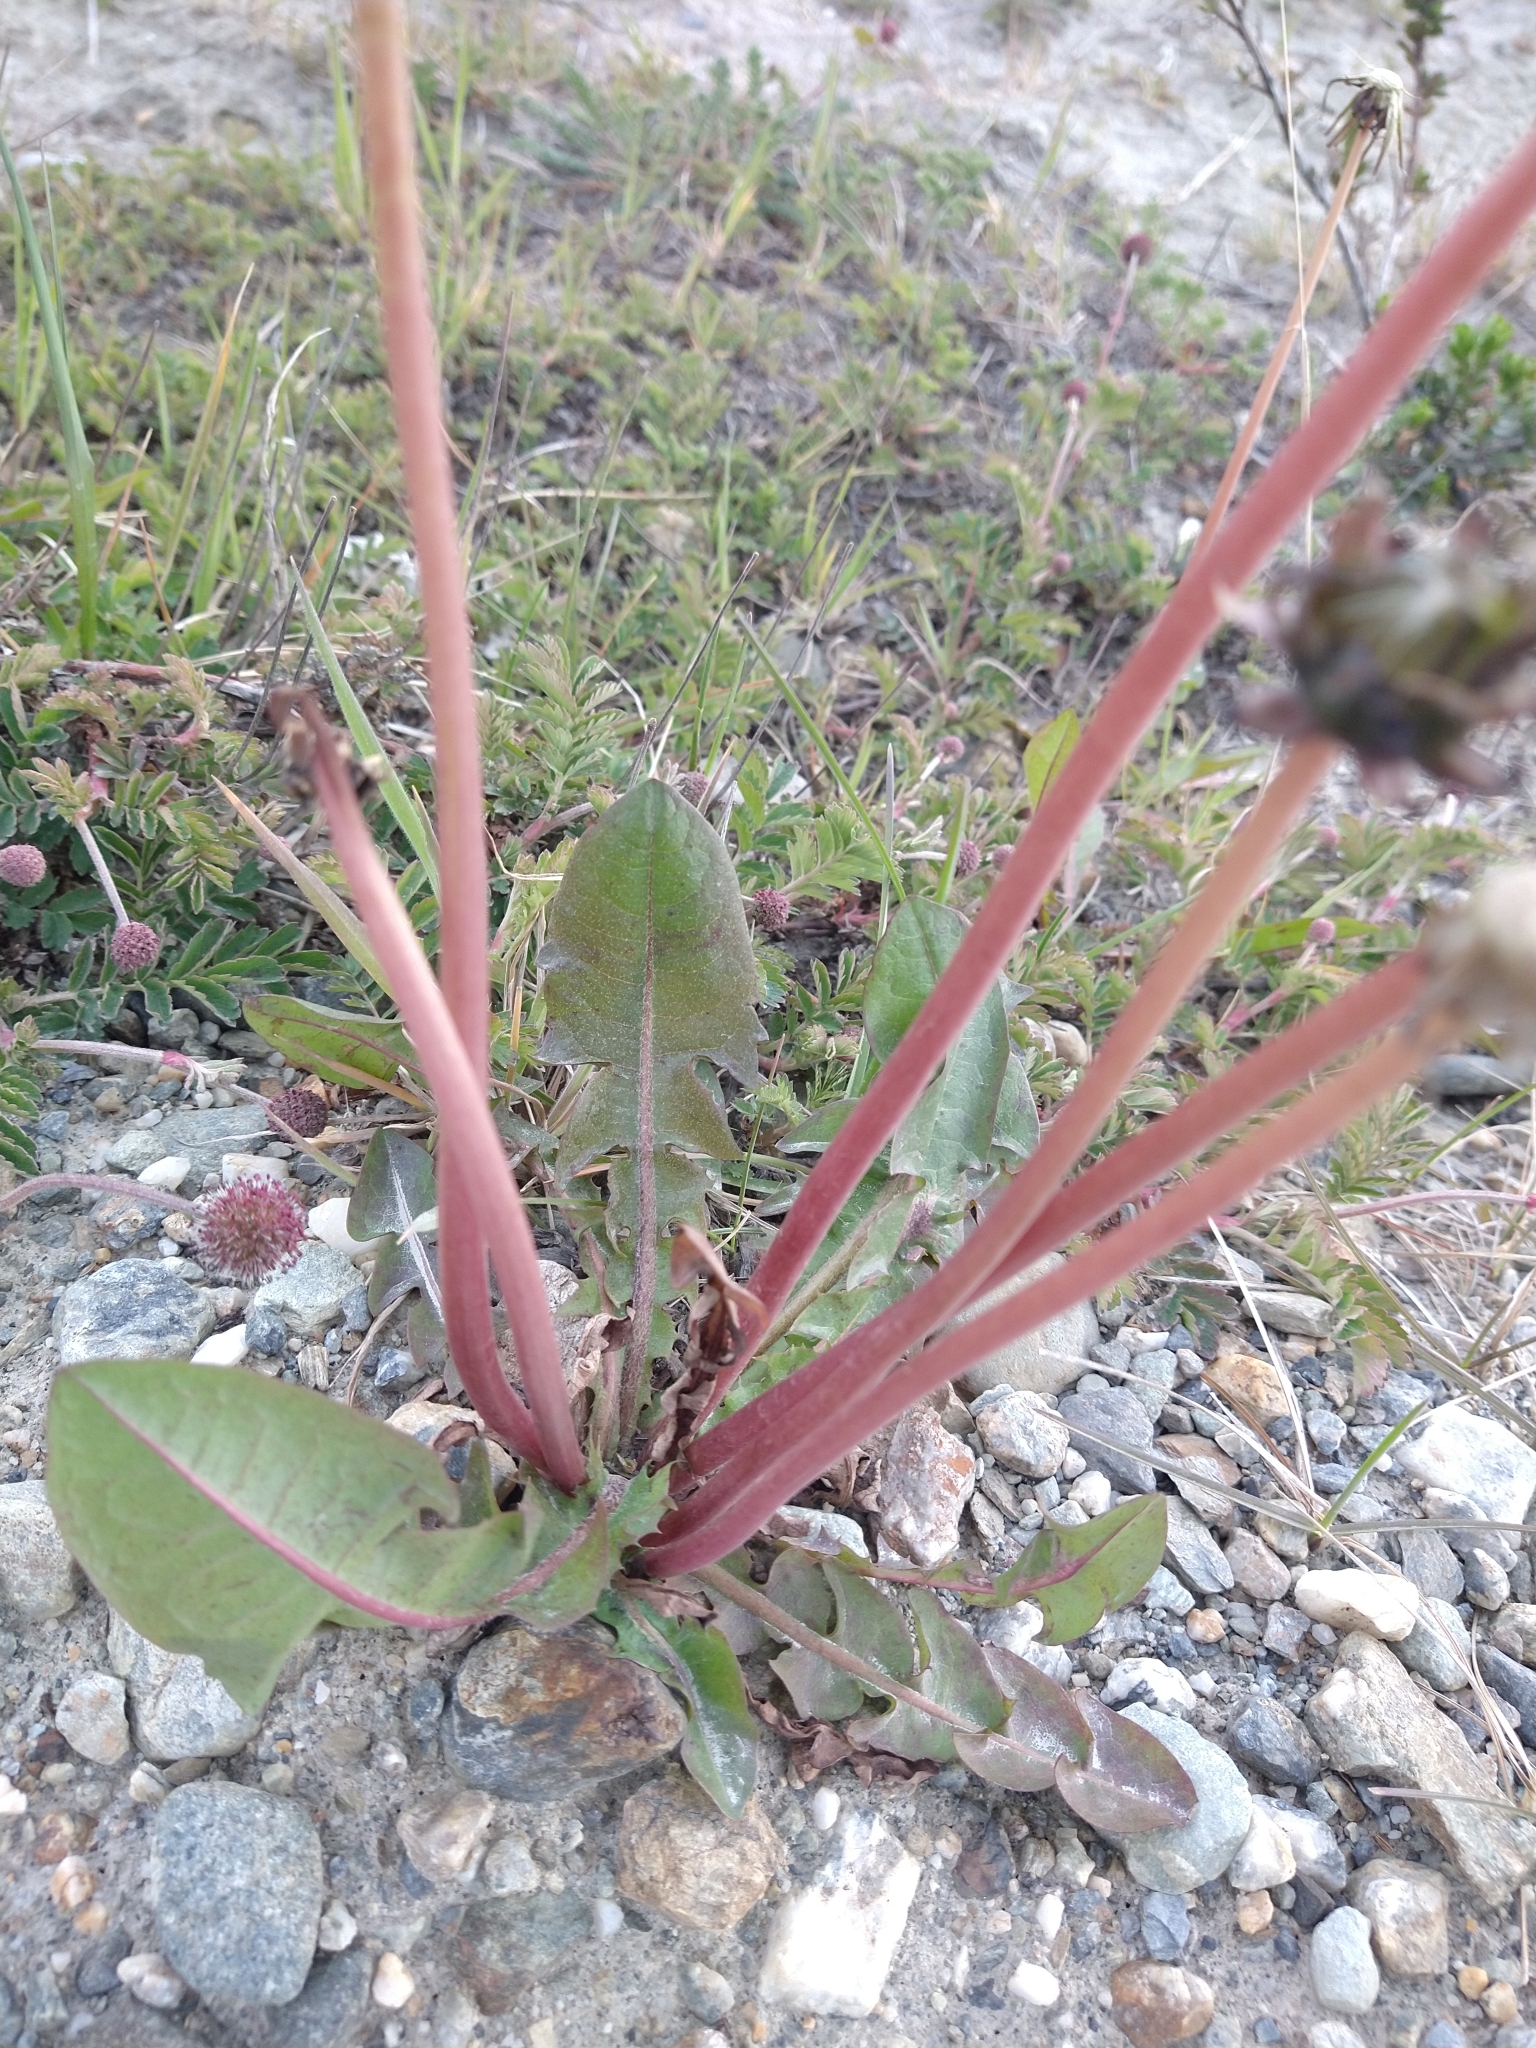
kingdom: Plantae
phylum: Tracheophyta
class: Magnoliopsida
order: Asterales
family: Asteraceae
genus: Taraxacum
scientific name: Taraxacum officinale
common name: Common dandelion
